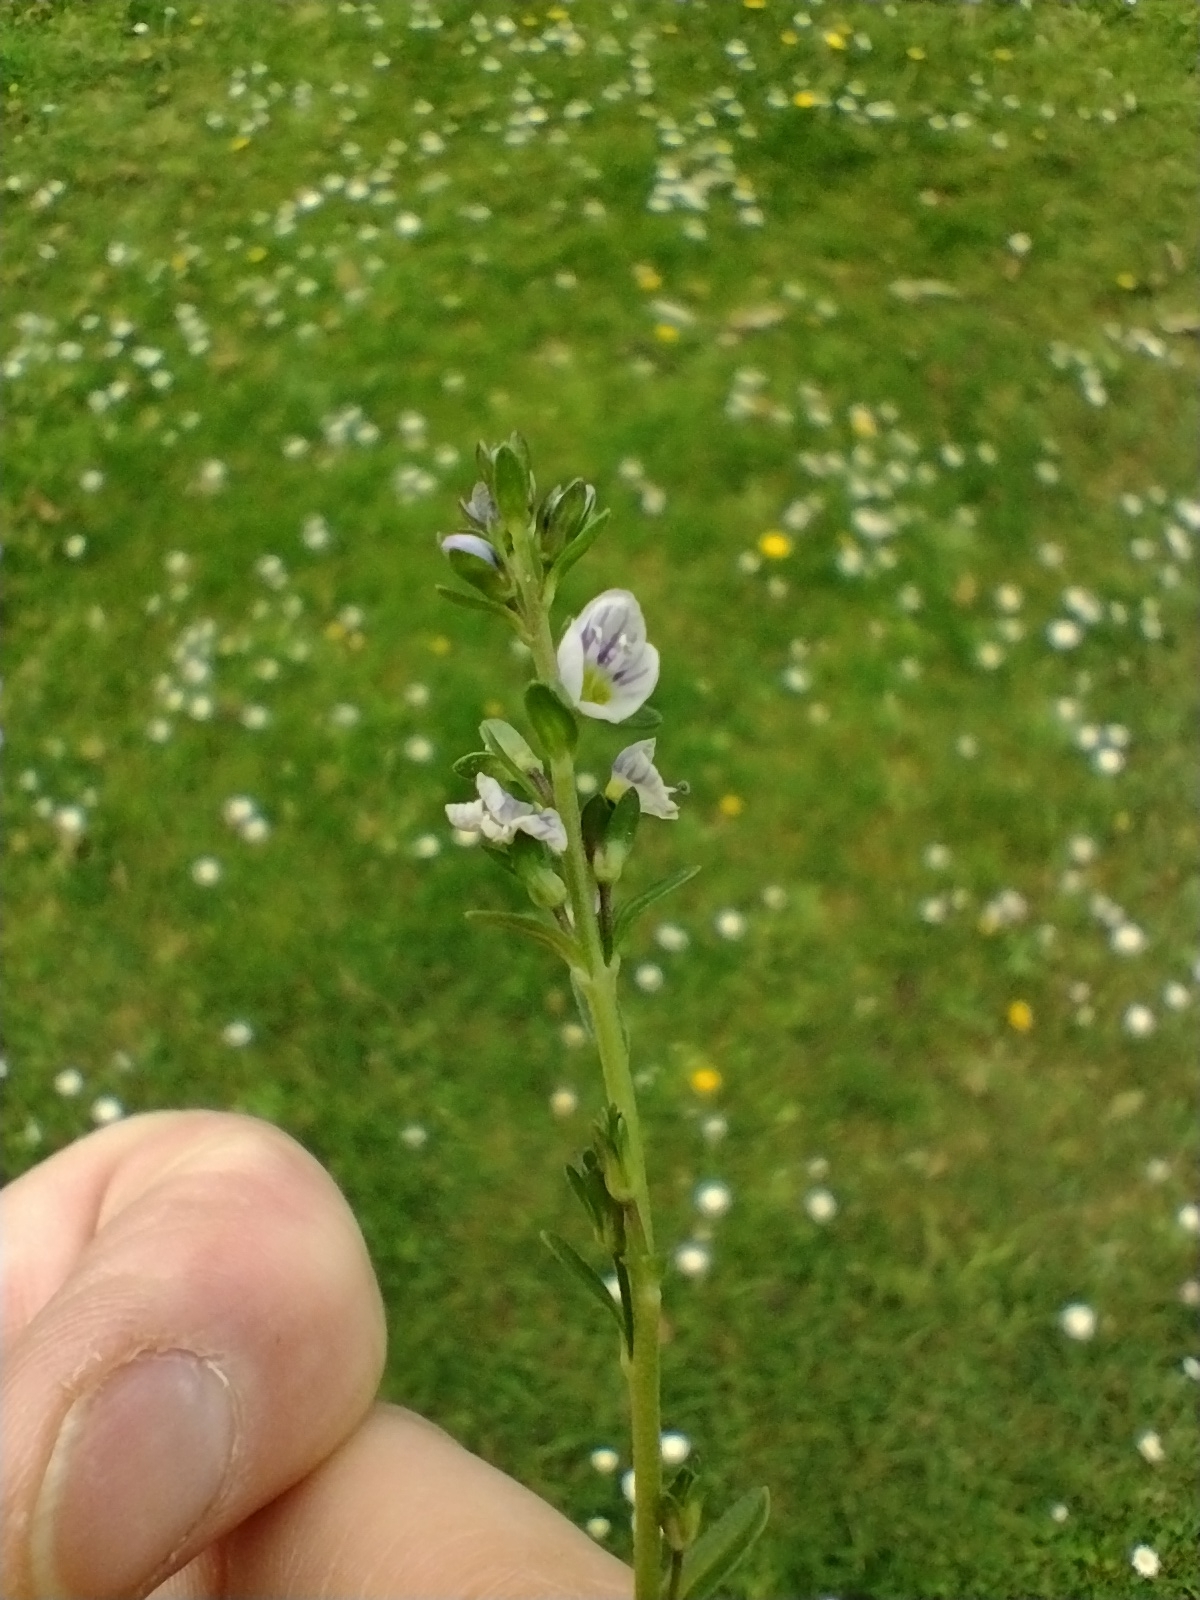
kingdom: Plantae
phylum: Tracheophyta
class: Magnoliopsida
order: Lamiales
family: Plantaginaceae
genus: Veronica
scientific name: Veronica serpyllifolia
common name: Thyme-leaved speedwell
